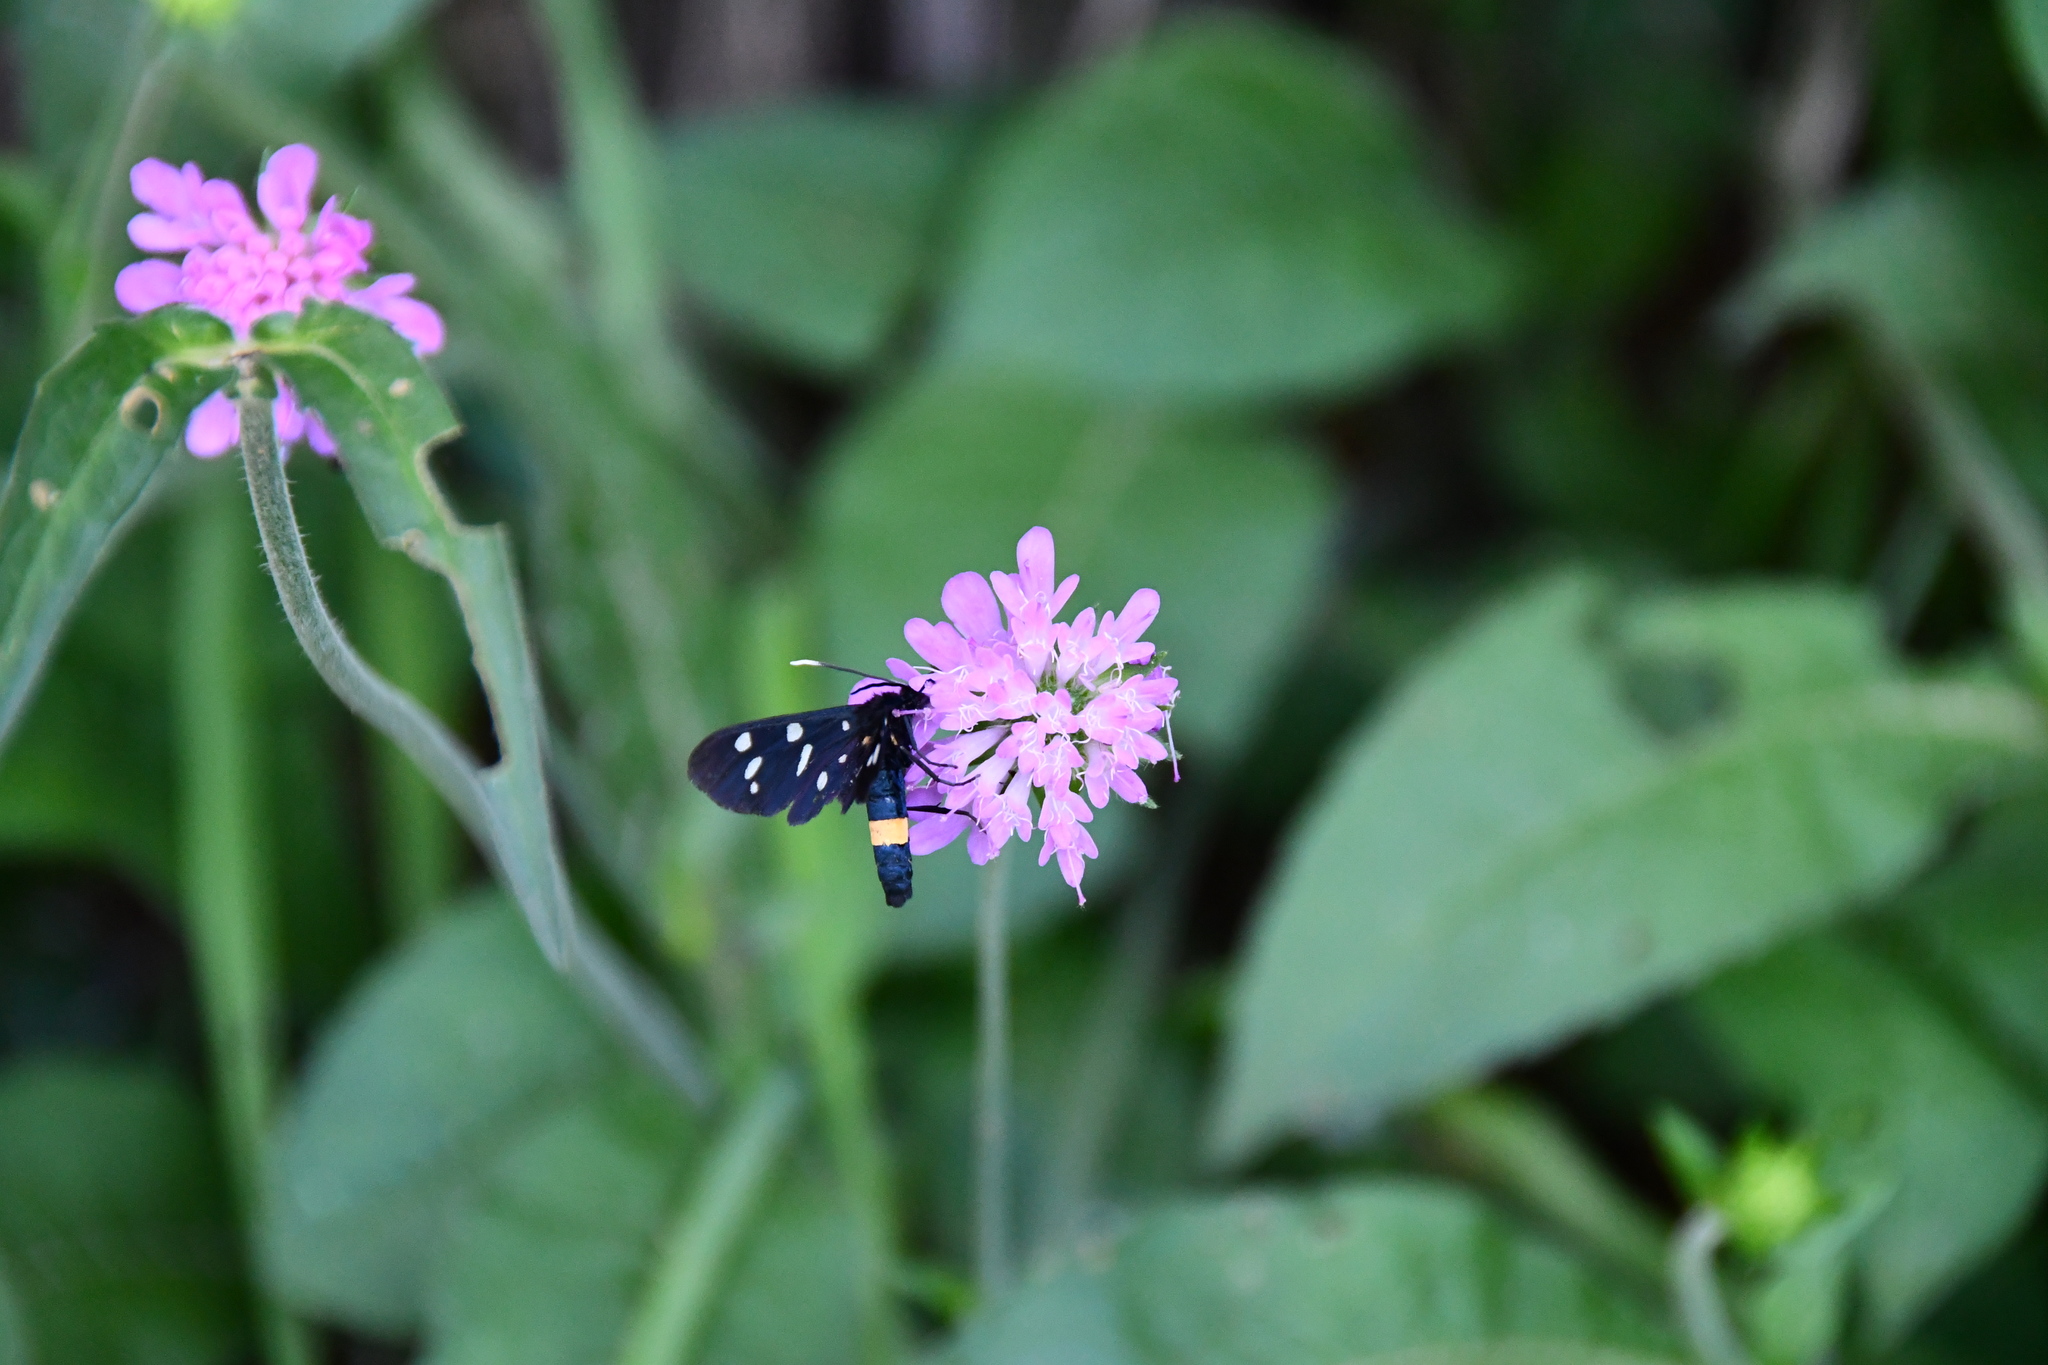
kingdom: Animalia
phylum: Arthropoda
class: Insecta
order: Lepidoptera
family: Erebidae
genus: Amata
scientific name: Amata phegea
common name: Nine-spotted
